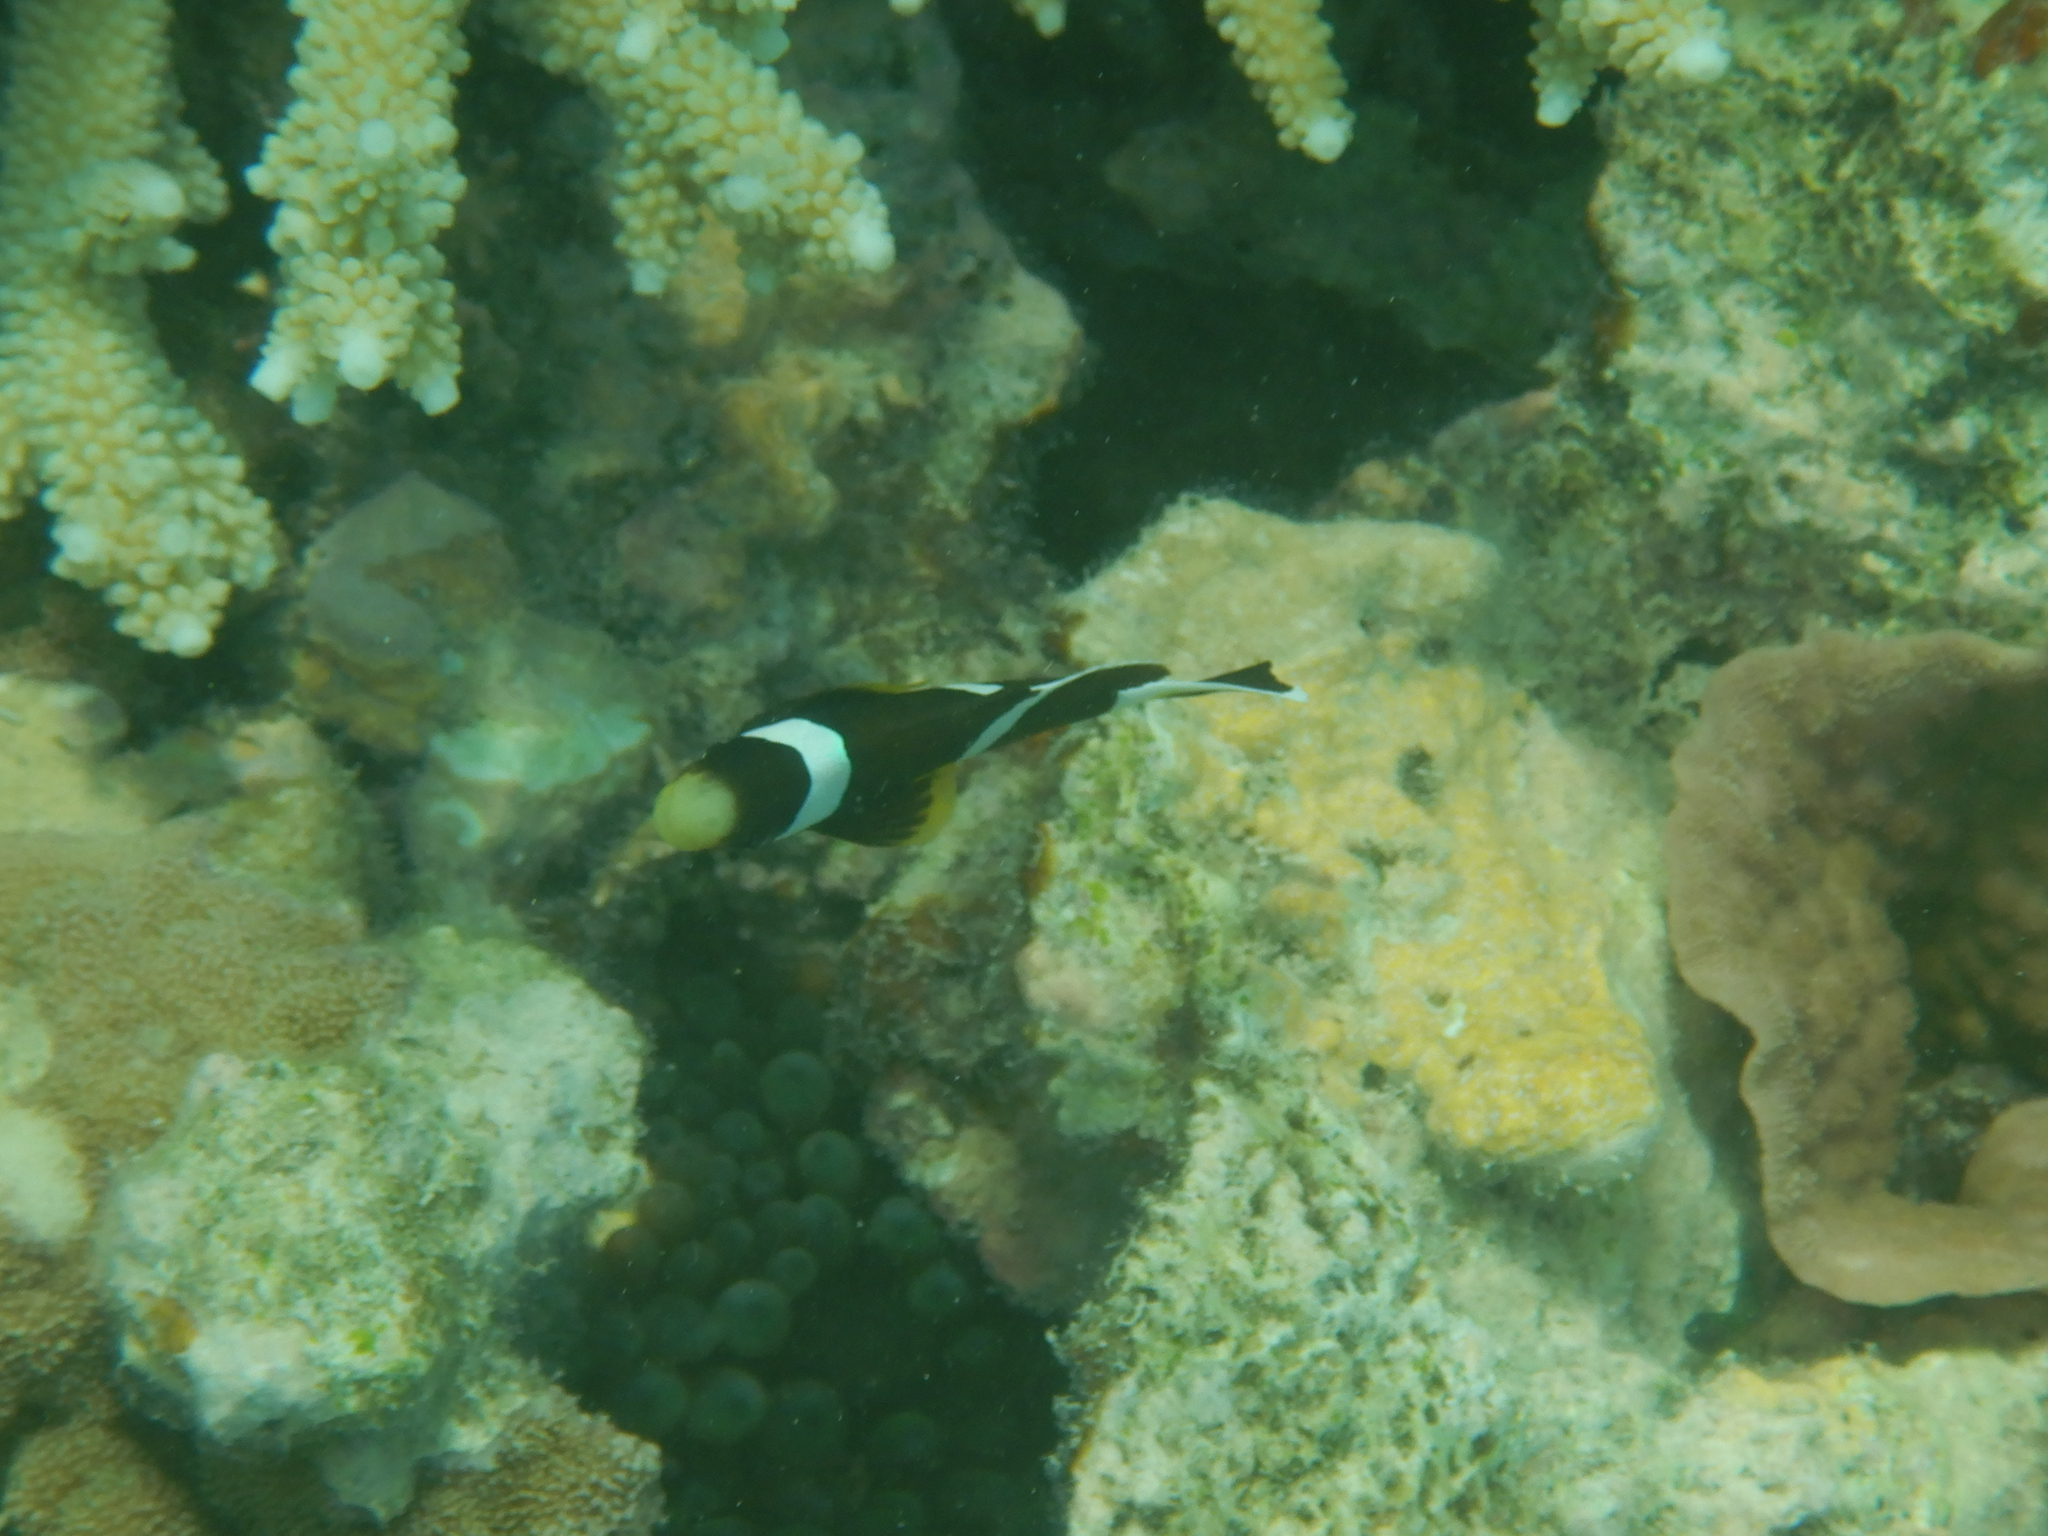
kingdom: Animalia
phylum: Chordata
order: Perciformes
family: Pomacentridae
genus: Amphiprion
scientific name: Amphiprion akindynos
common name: Barrier reef anemonefish
